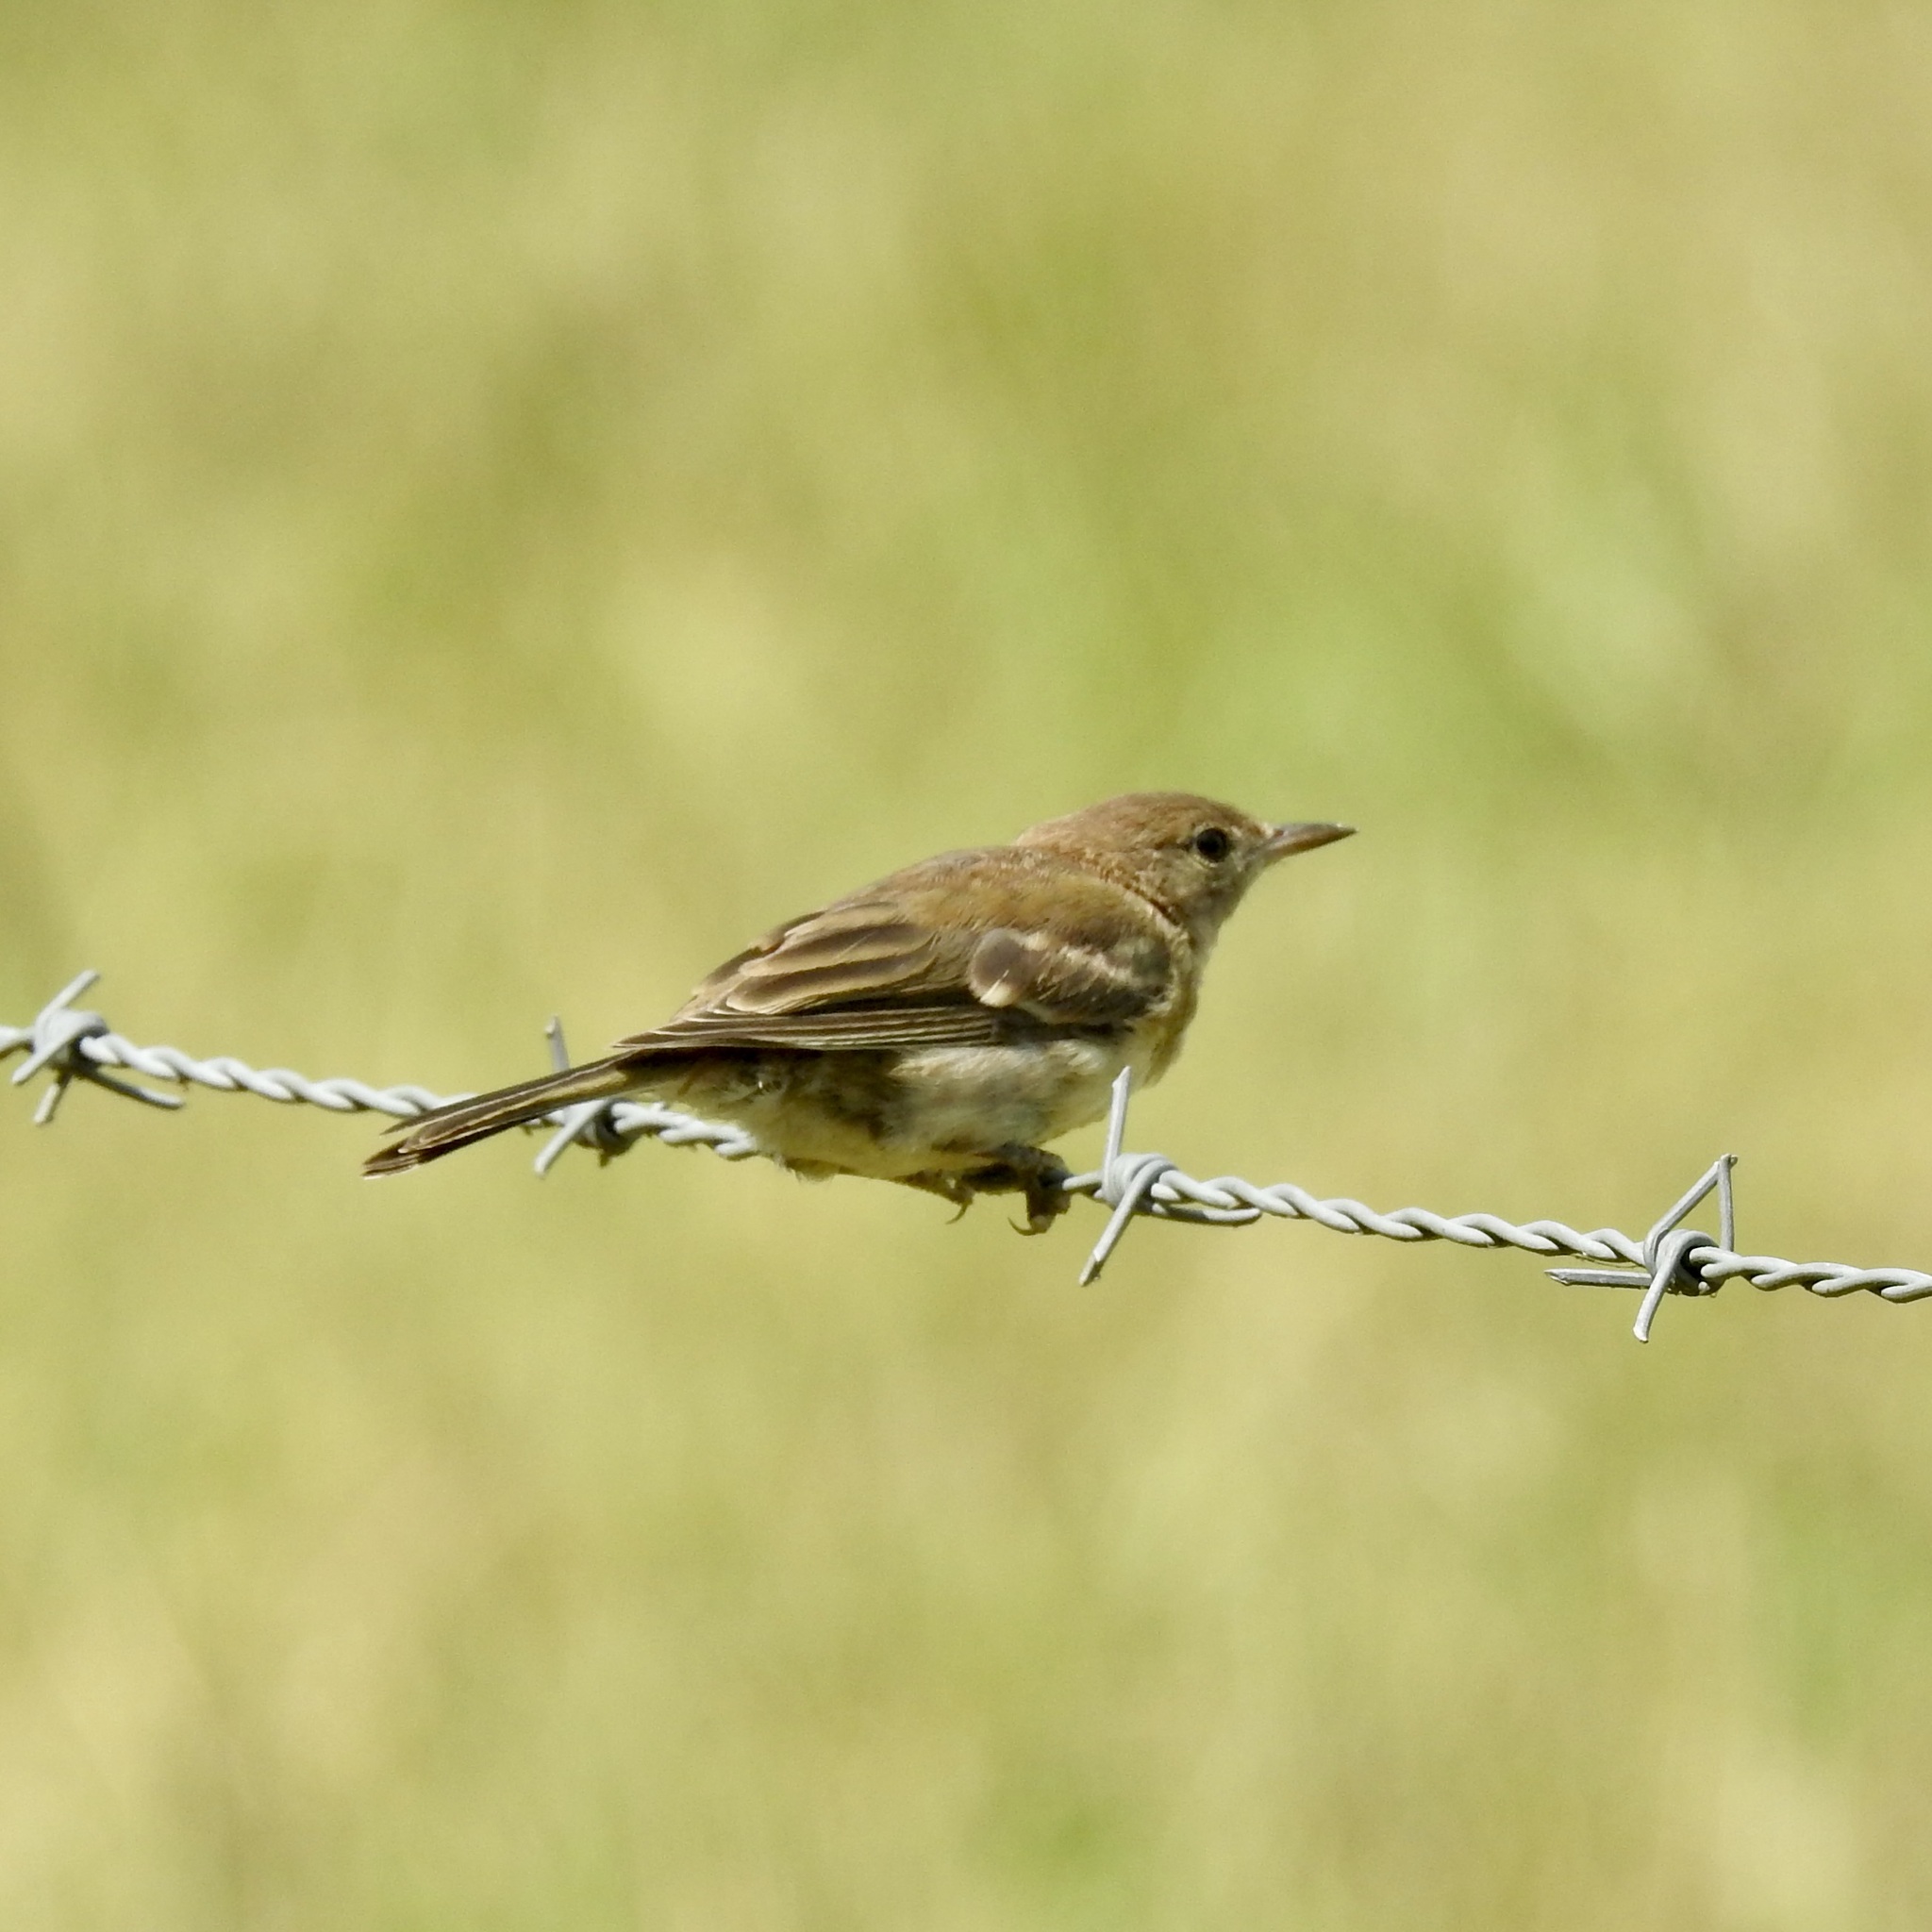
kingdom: Animalia
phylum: Chordata
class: Aves
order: Passeriformes
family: Parulidae
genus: Setophaga
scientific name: Setophaga pinus
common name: Pine warbler
